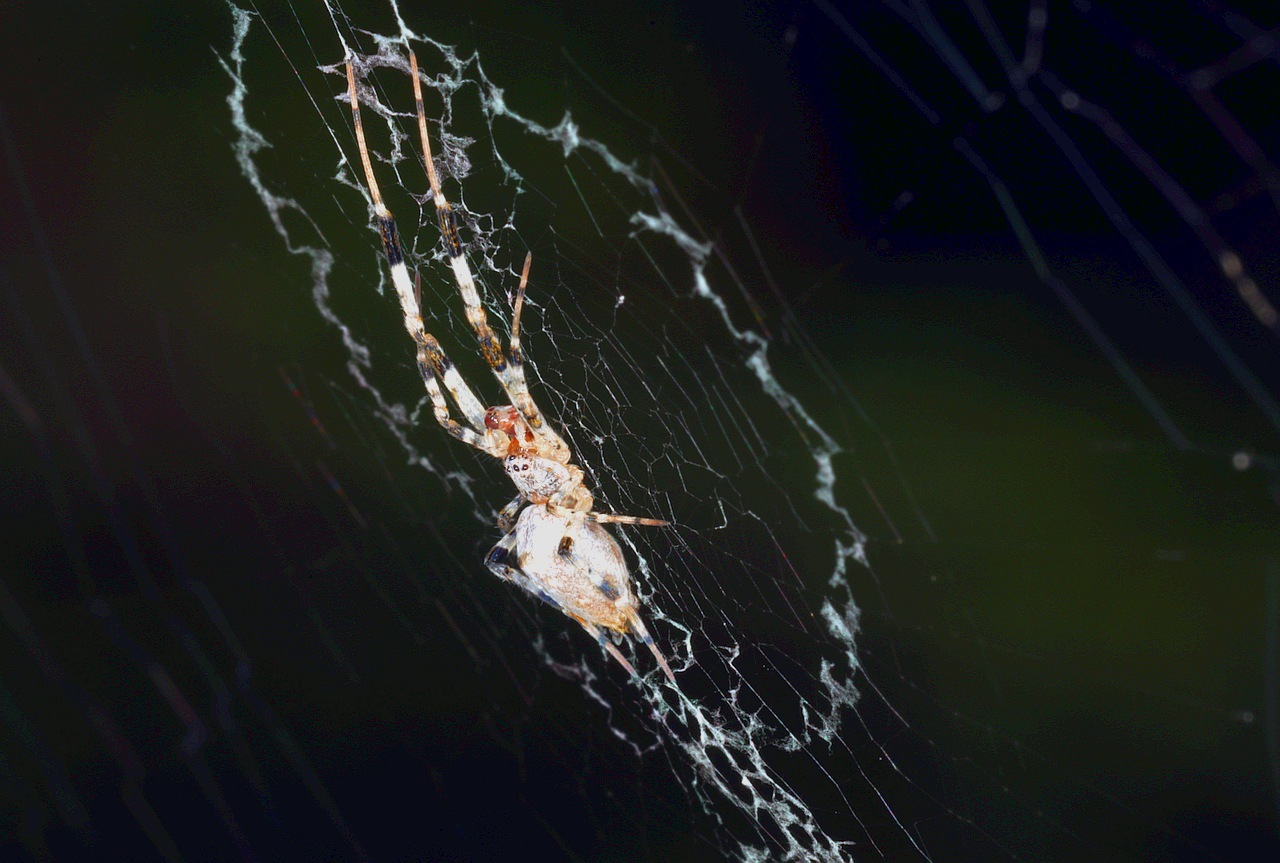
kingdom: Animalia
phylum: Arthropoda
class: Arachnida
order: Araneae
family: Uloboridae
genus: Zosis
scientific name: Zosis geniculata
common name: Hackled orb weavers
